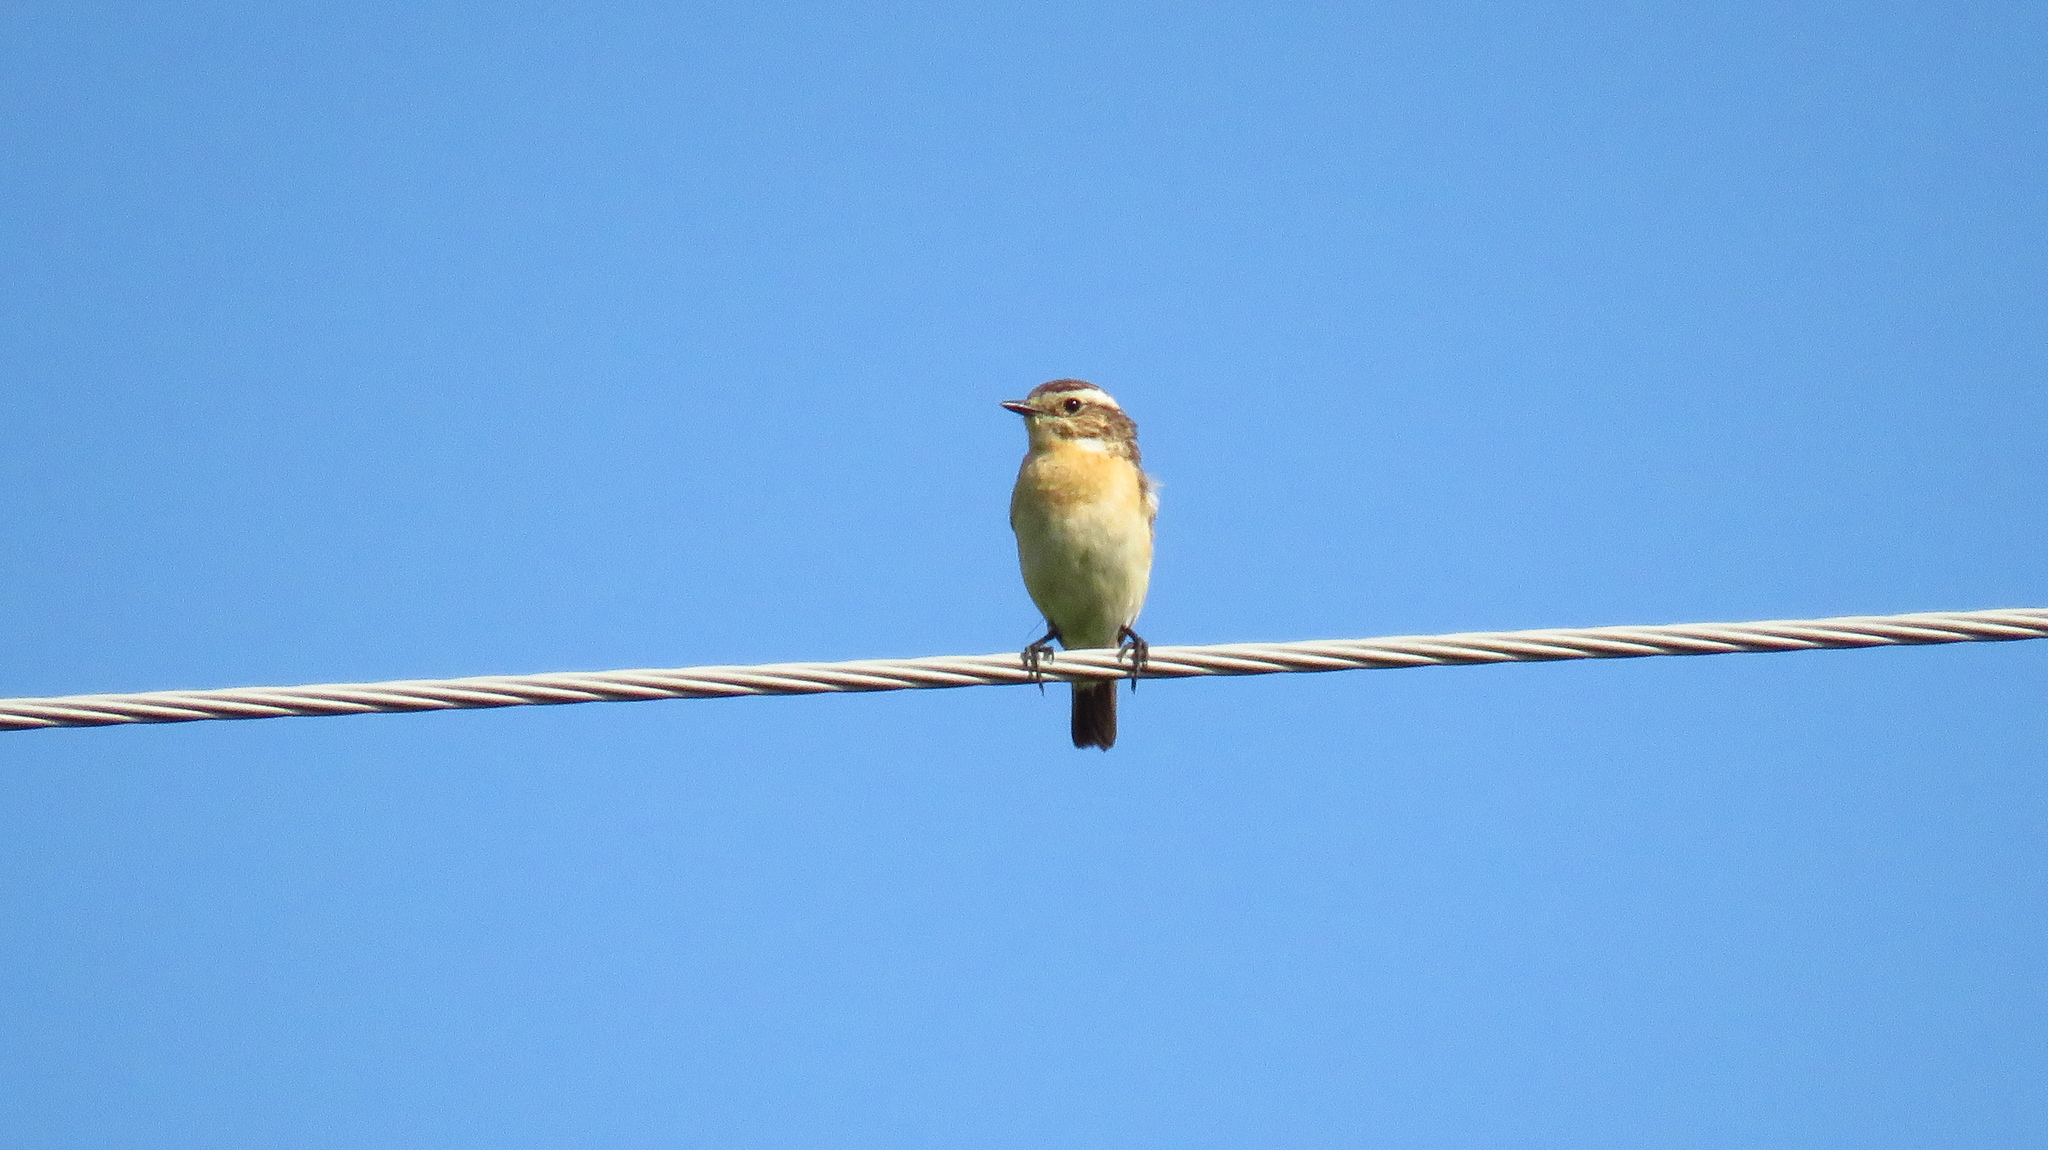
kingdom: Animalia
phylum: Chordata
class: Aves
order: Passeriformes
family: Muscicapidae
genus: Saxicola
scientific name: Saxicola rubetra
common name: Whinchat
